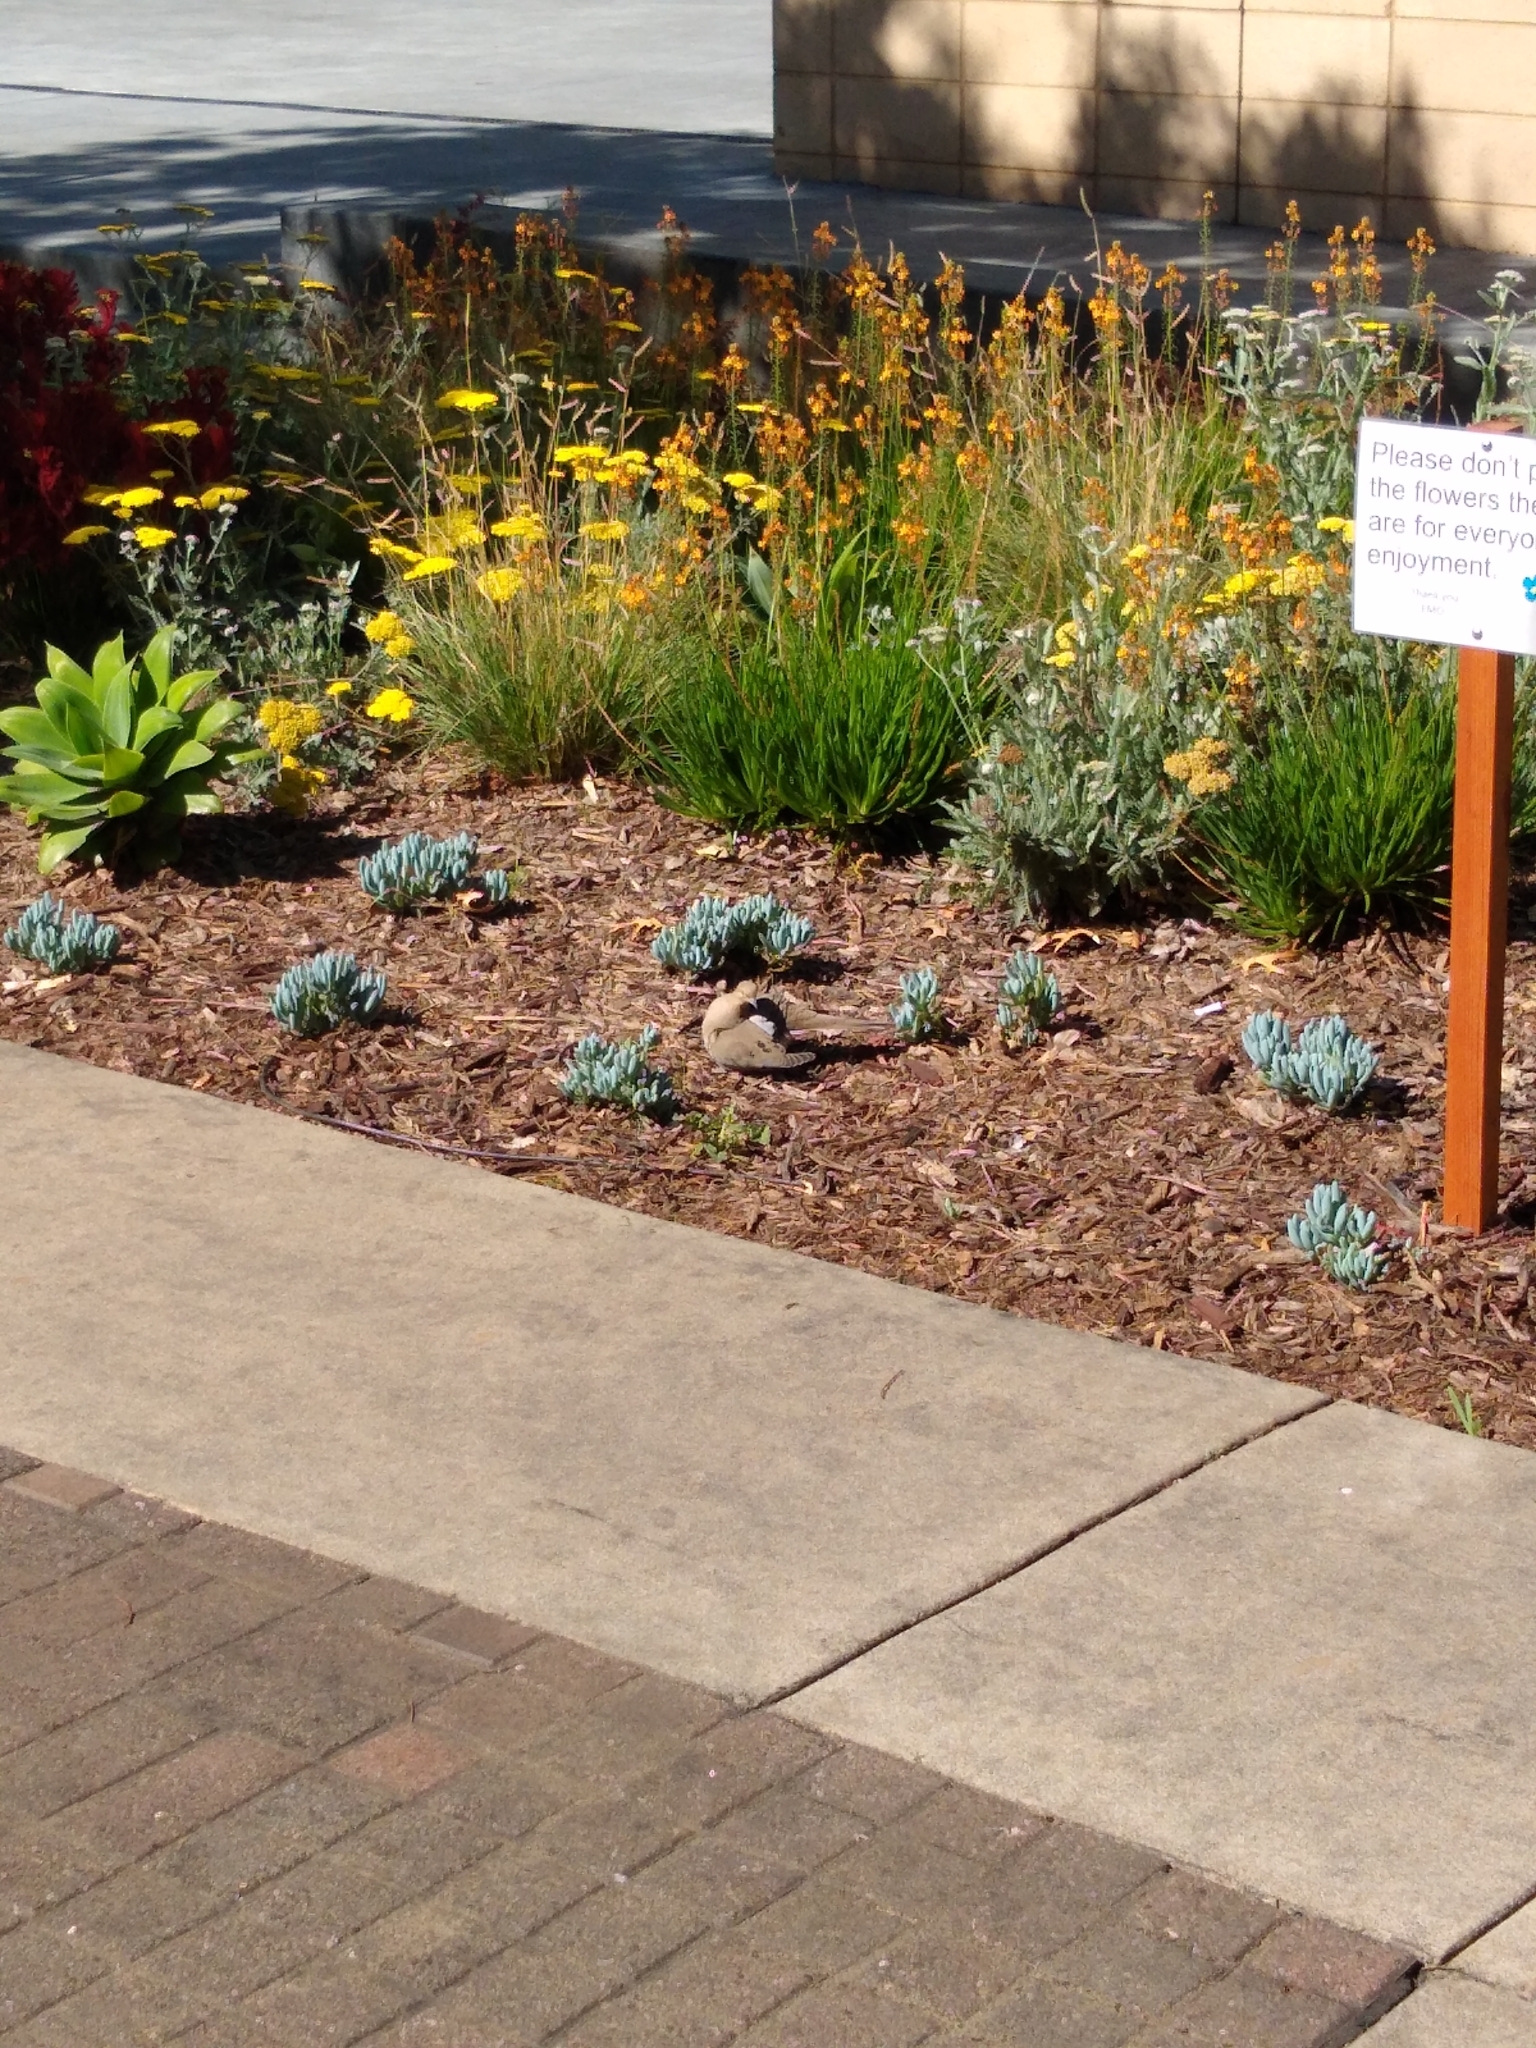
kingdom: Animalia
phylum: Chordata
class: Aves
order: Columbiformes
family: Columbidae
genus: Zenaida
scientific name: Zenaida macroura
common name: Mourning dove
